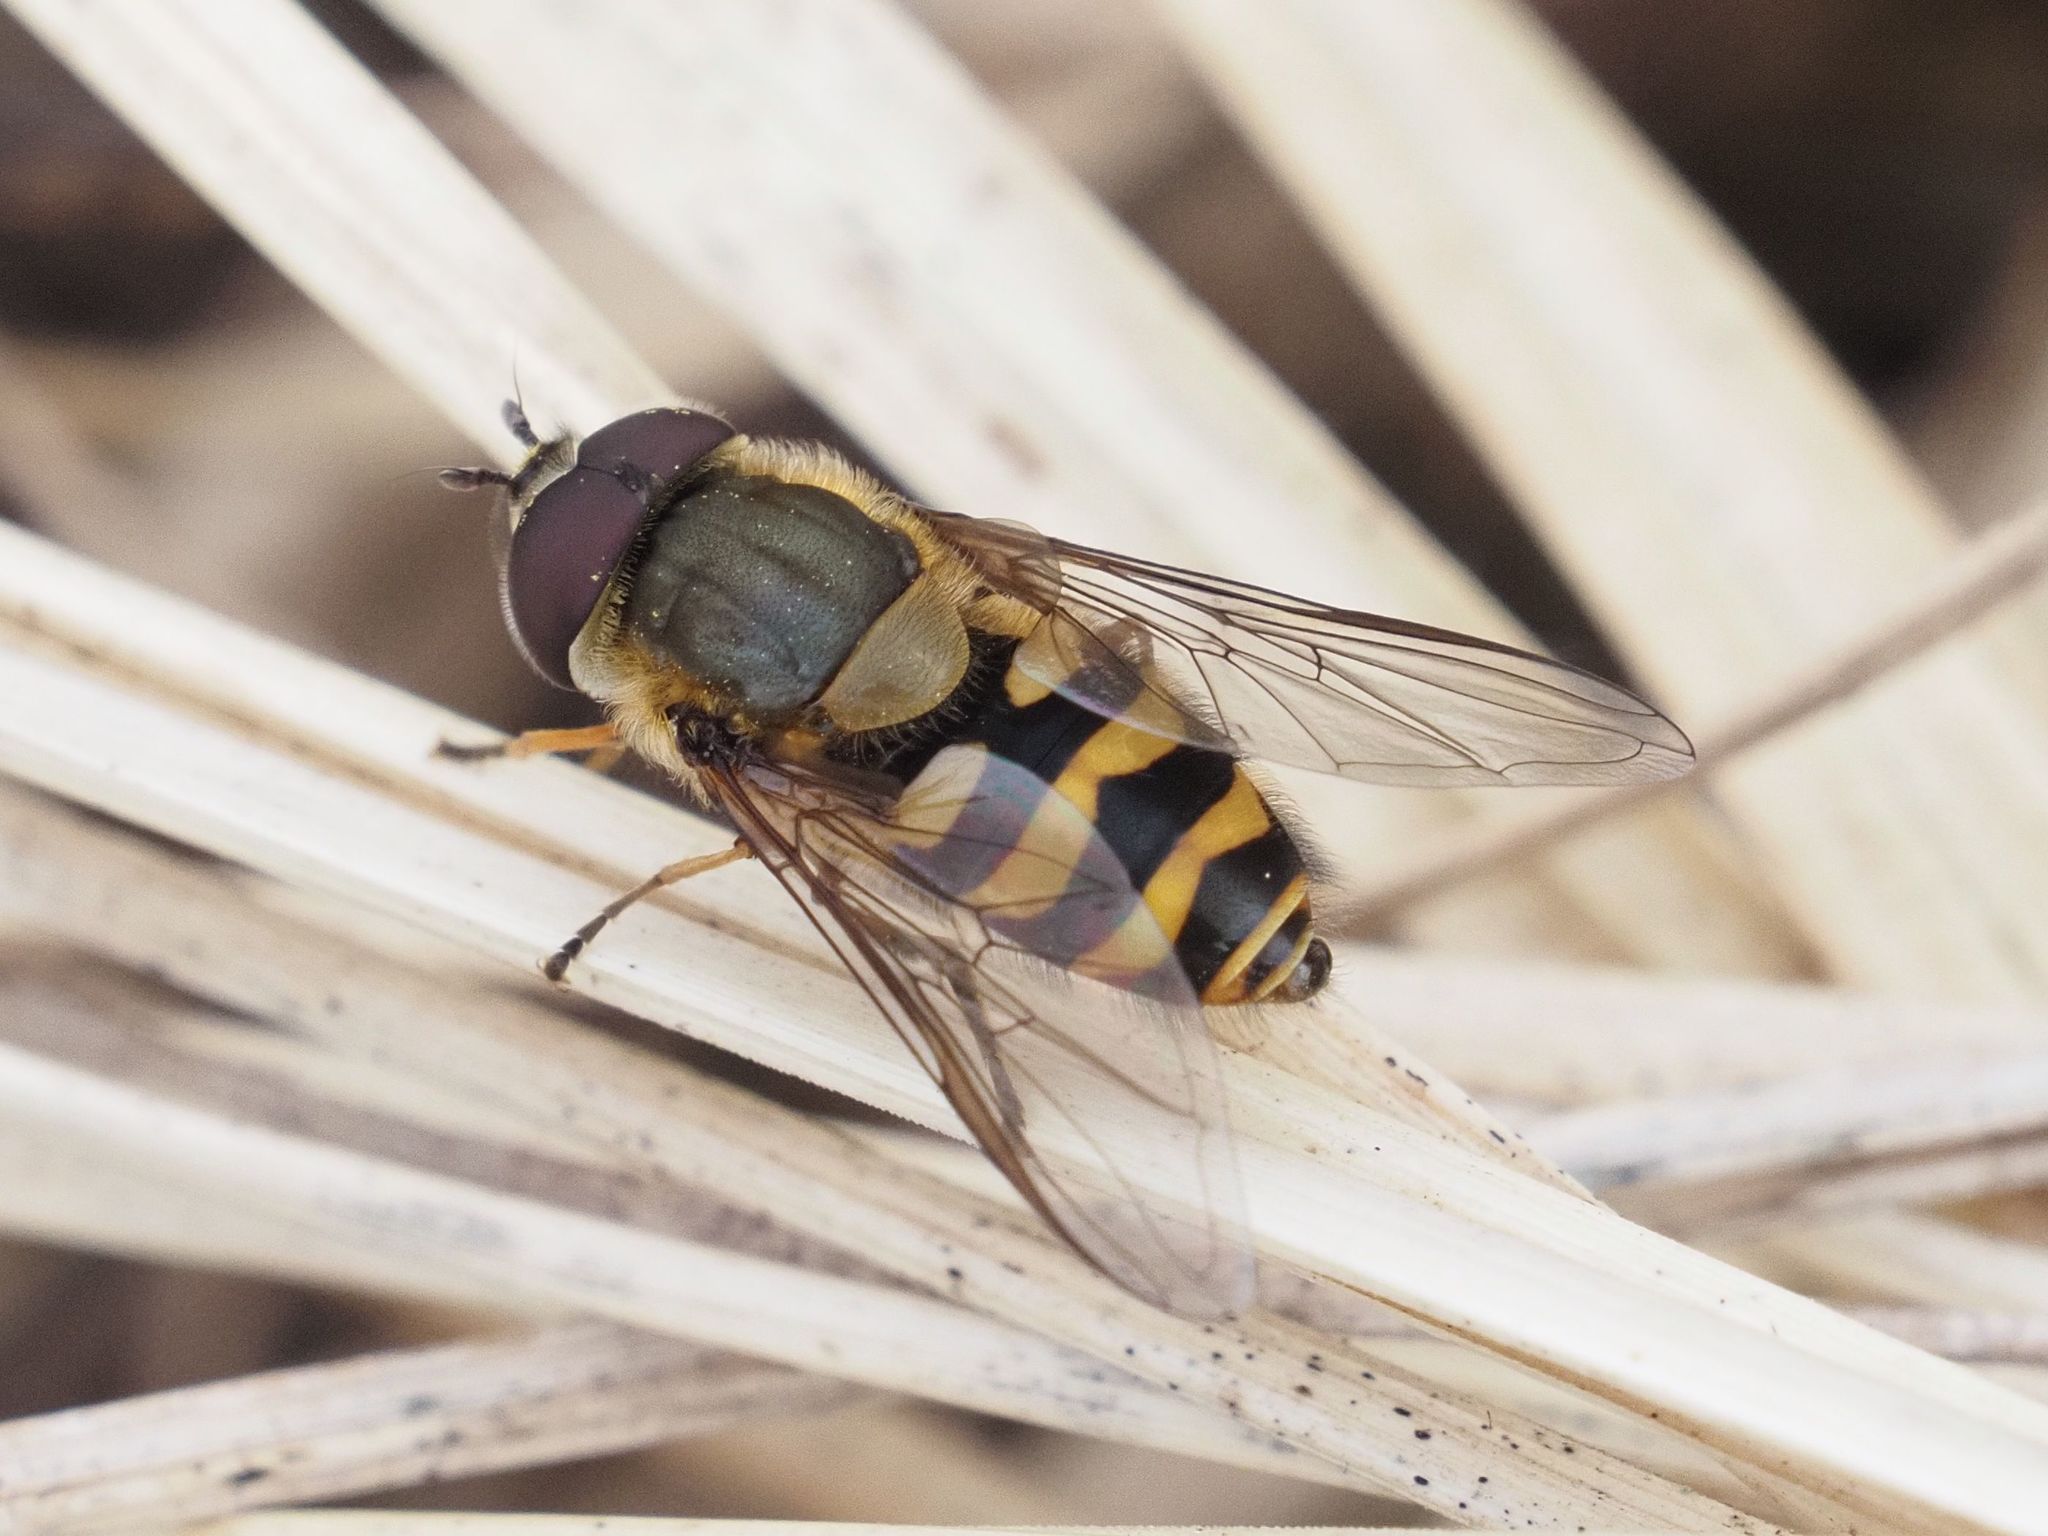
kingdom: Animalia
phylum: Arthropoda
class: Insecta
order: Diptera
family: Syrphidae
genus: Syrphus
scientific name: Syrphus torvus
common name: Hairy-eyed flower fly
